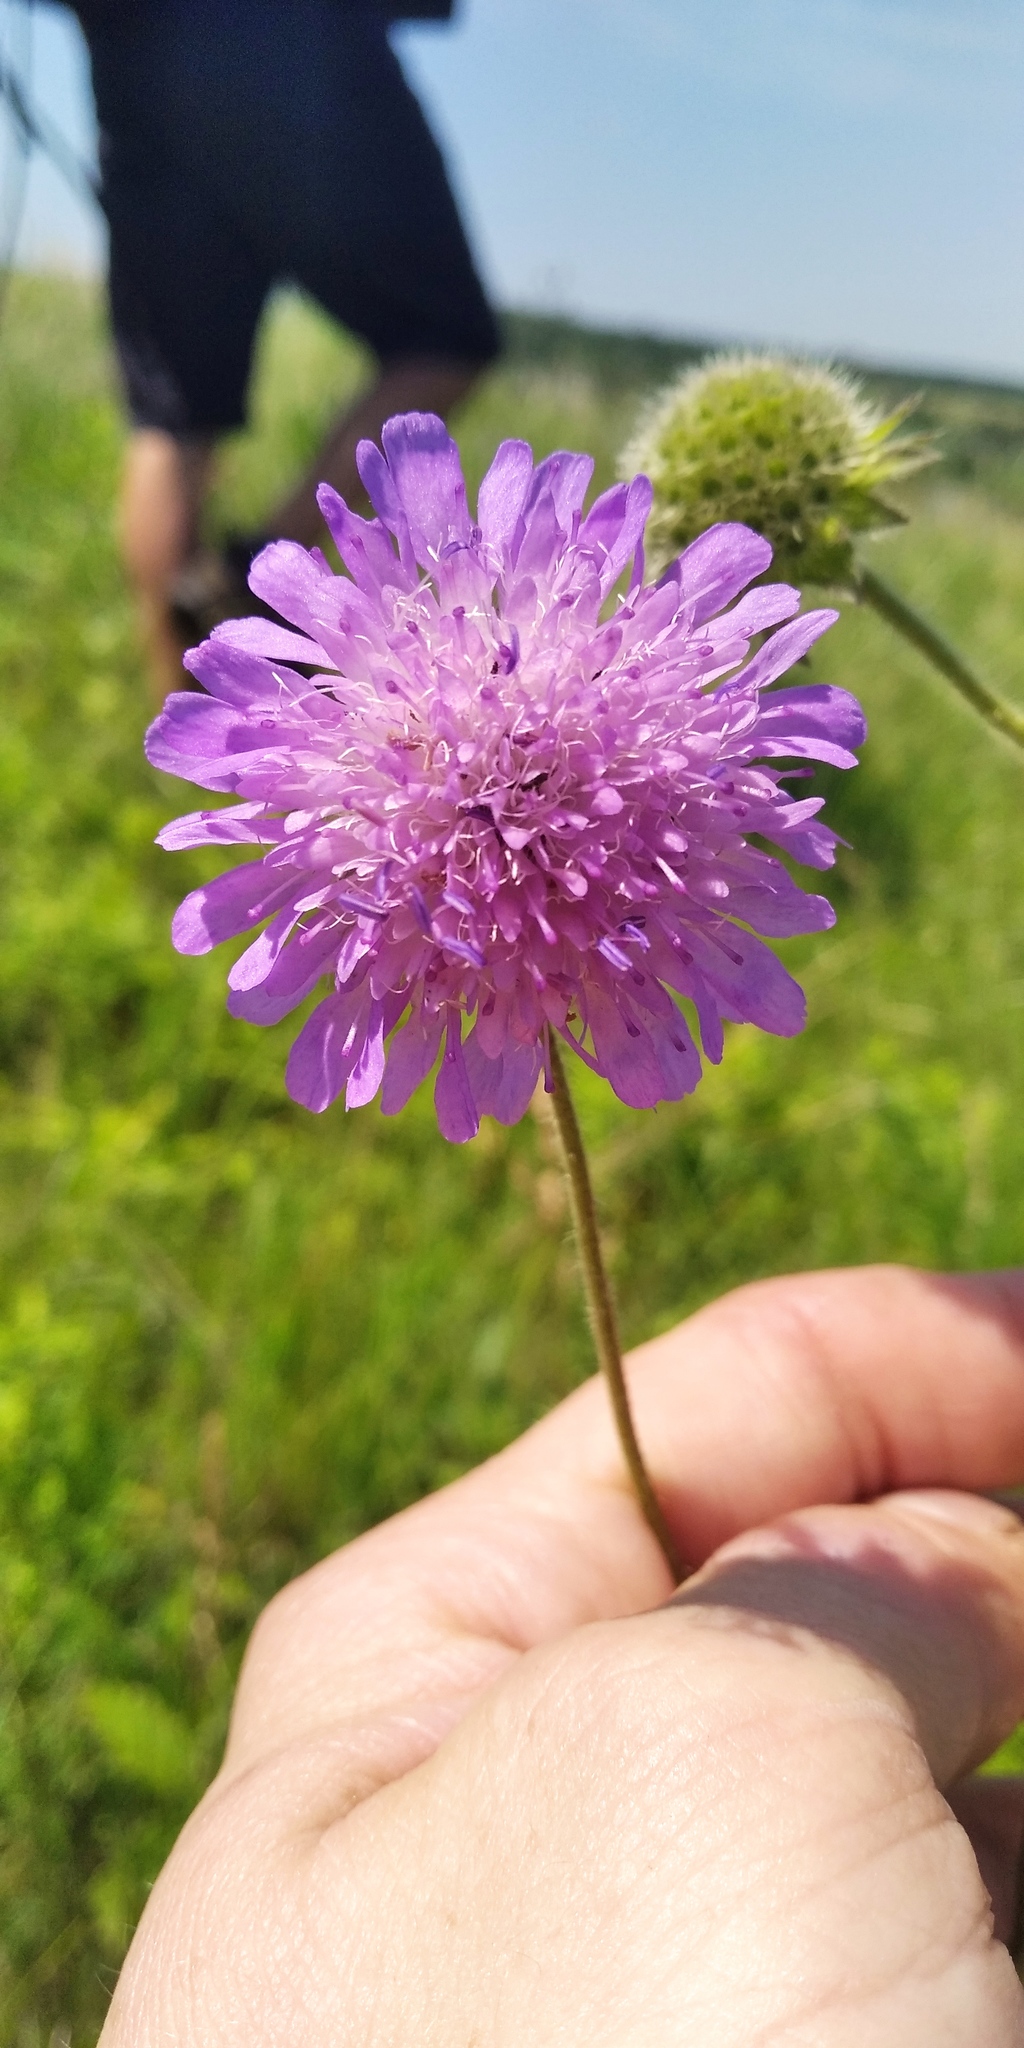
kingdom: Plantae
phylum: Tracheophyta
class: Magnoliopsida
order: Dipsacales
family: Caprifoliaceae
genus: Knautia
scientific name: Knautia arvensis
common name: Field scabiosa
